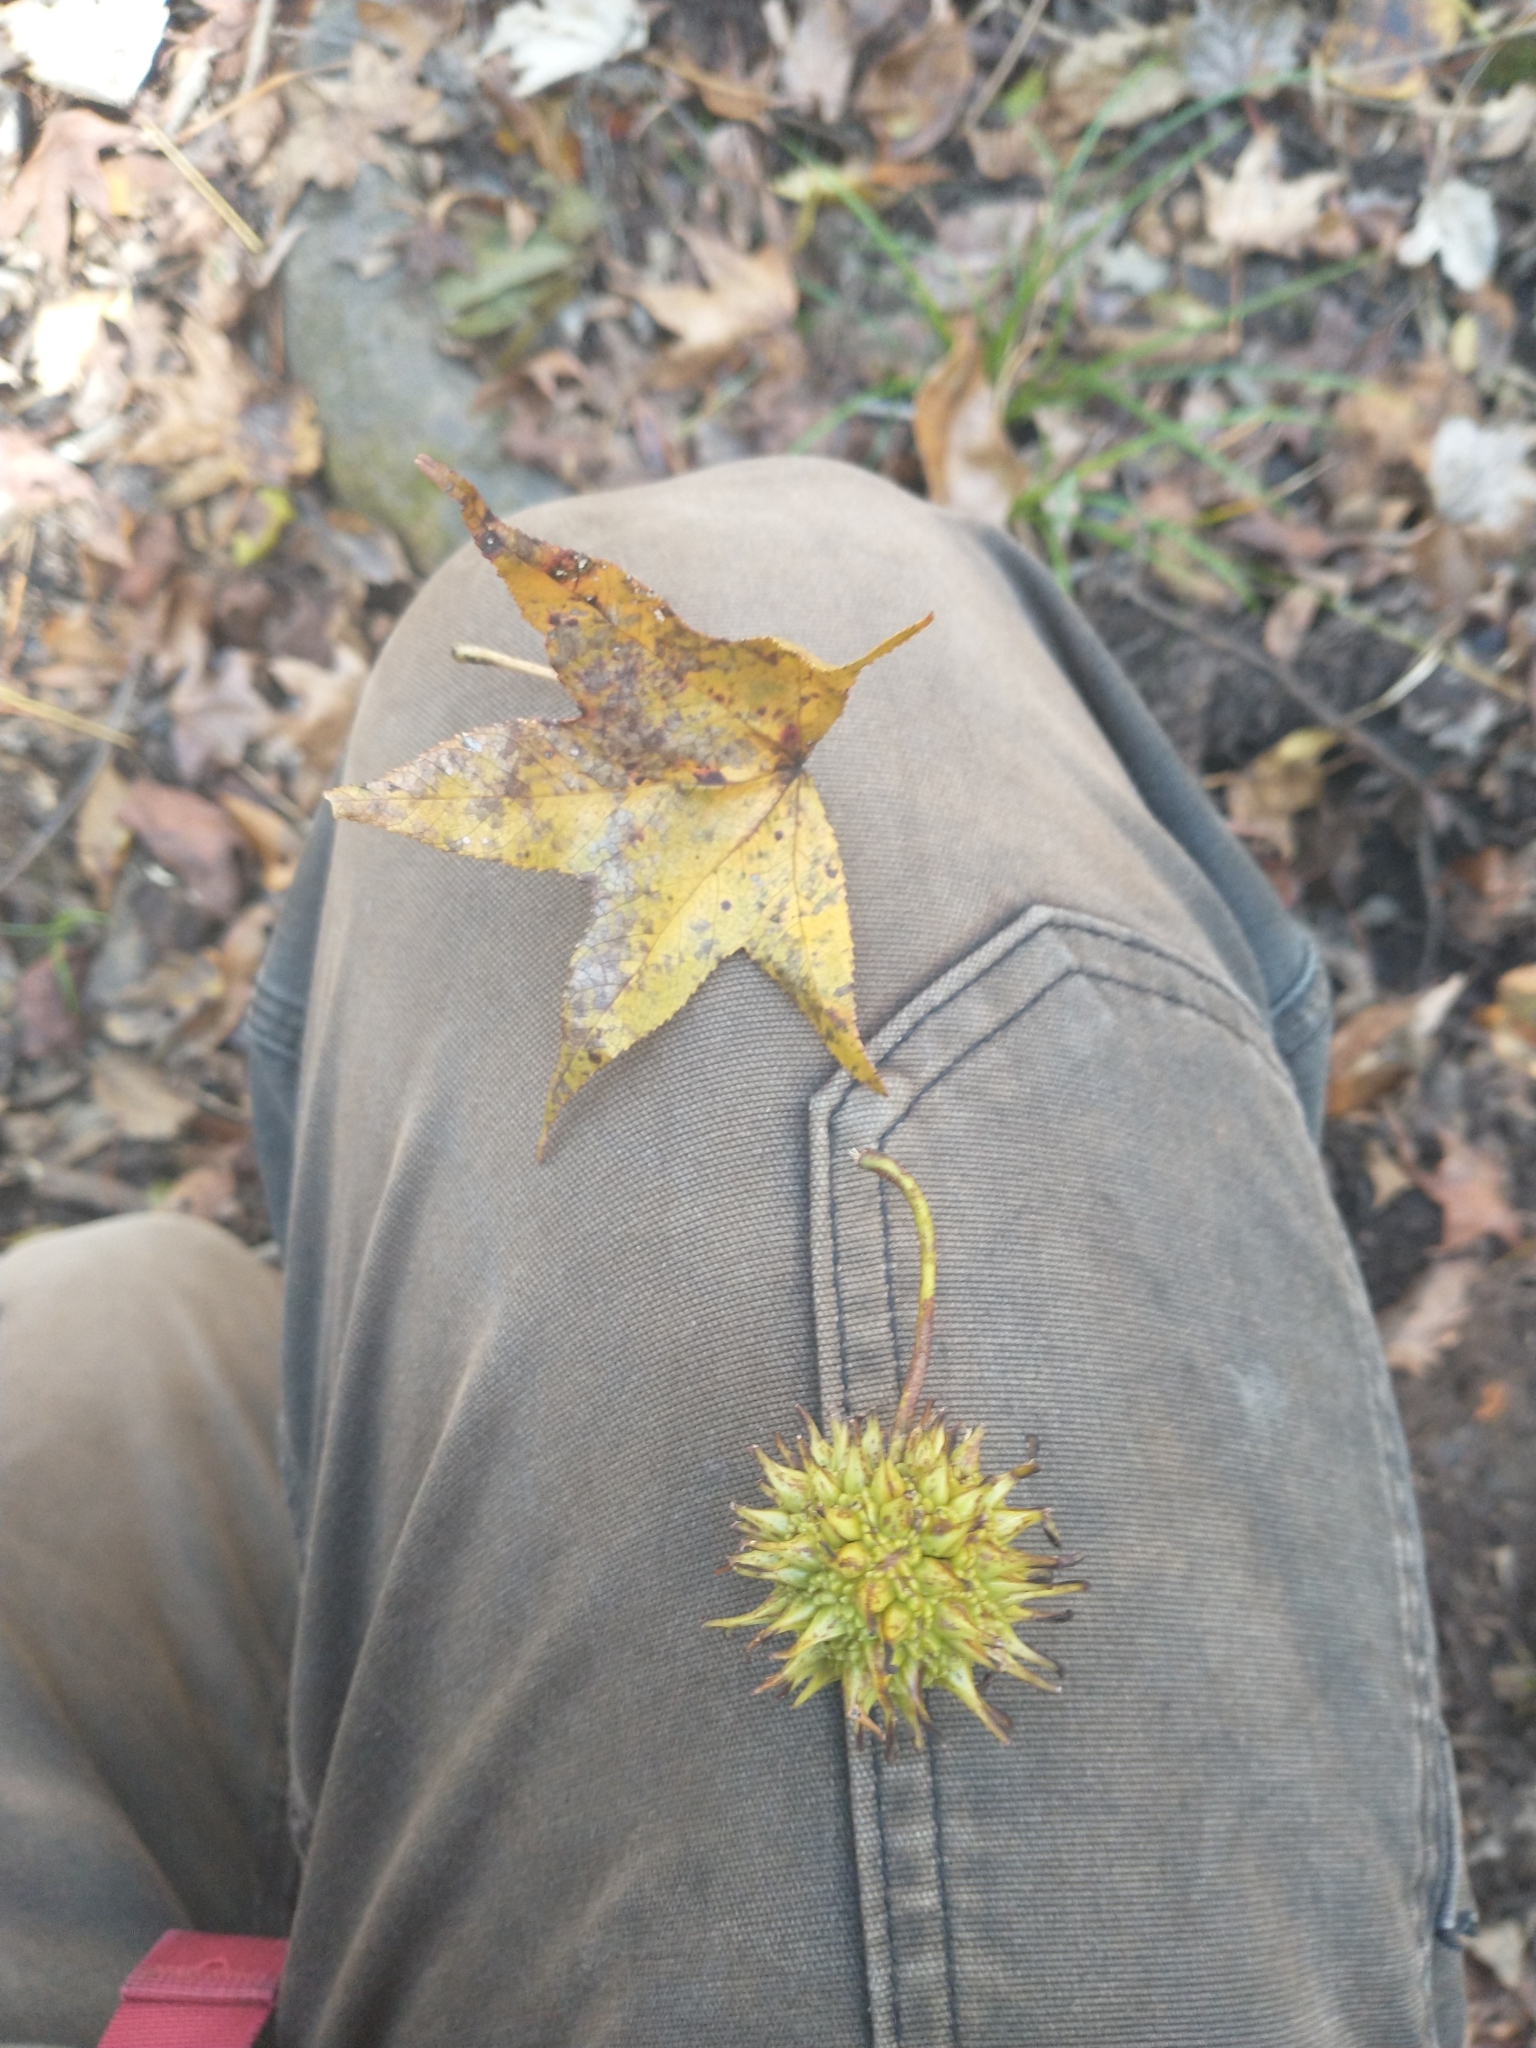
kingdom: Plantae
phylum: Tracheophyta
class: Magnoliopsida
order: Saxifragales
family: Altingiaceae
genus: Liquidambar
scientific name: Liquidambar styraciflua
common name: Sweet gum
